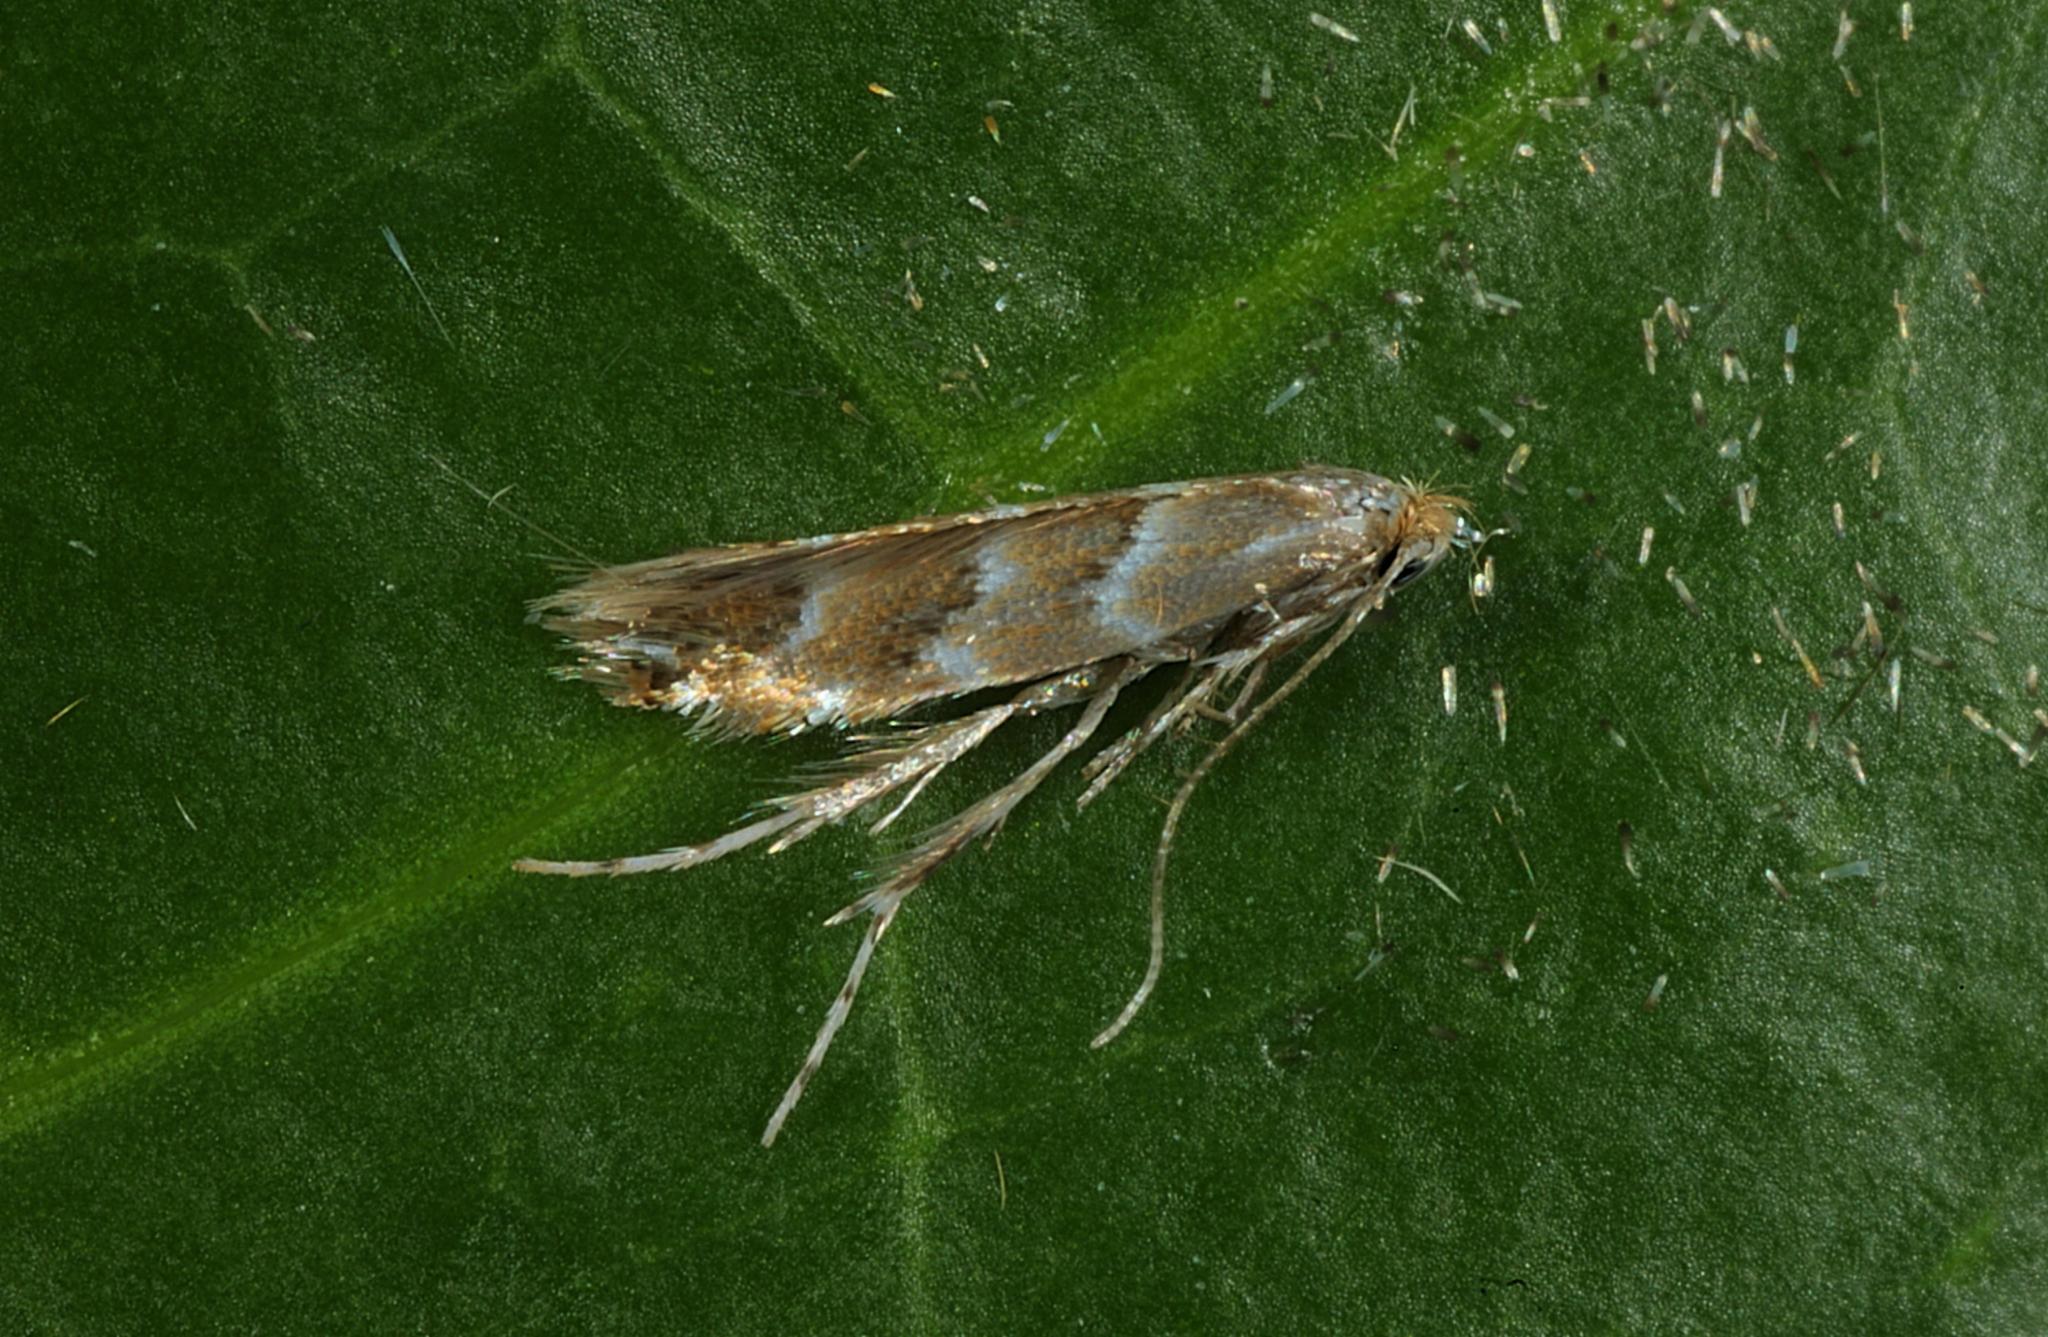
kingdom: Animalia
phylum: Arthropoda
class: Insecta
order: Lepidoptera
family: Gracillariidae
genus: Cameraria
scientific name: Cameraria ohridella
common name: Horse-chestnut leaf-miner
